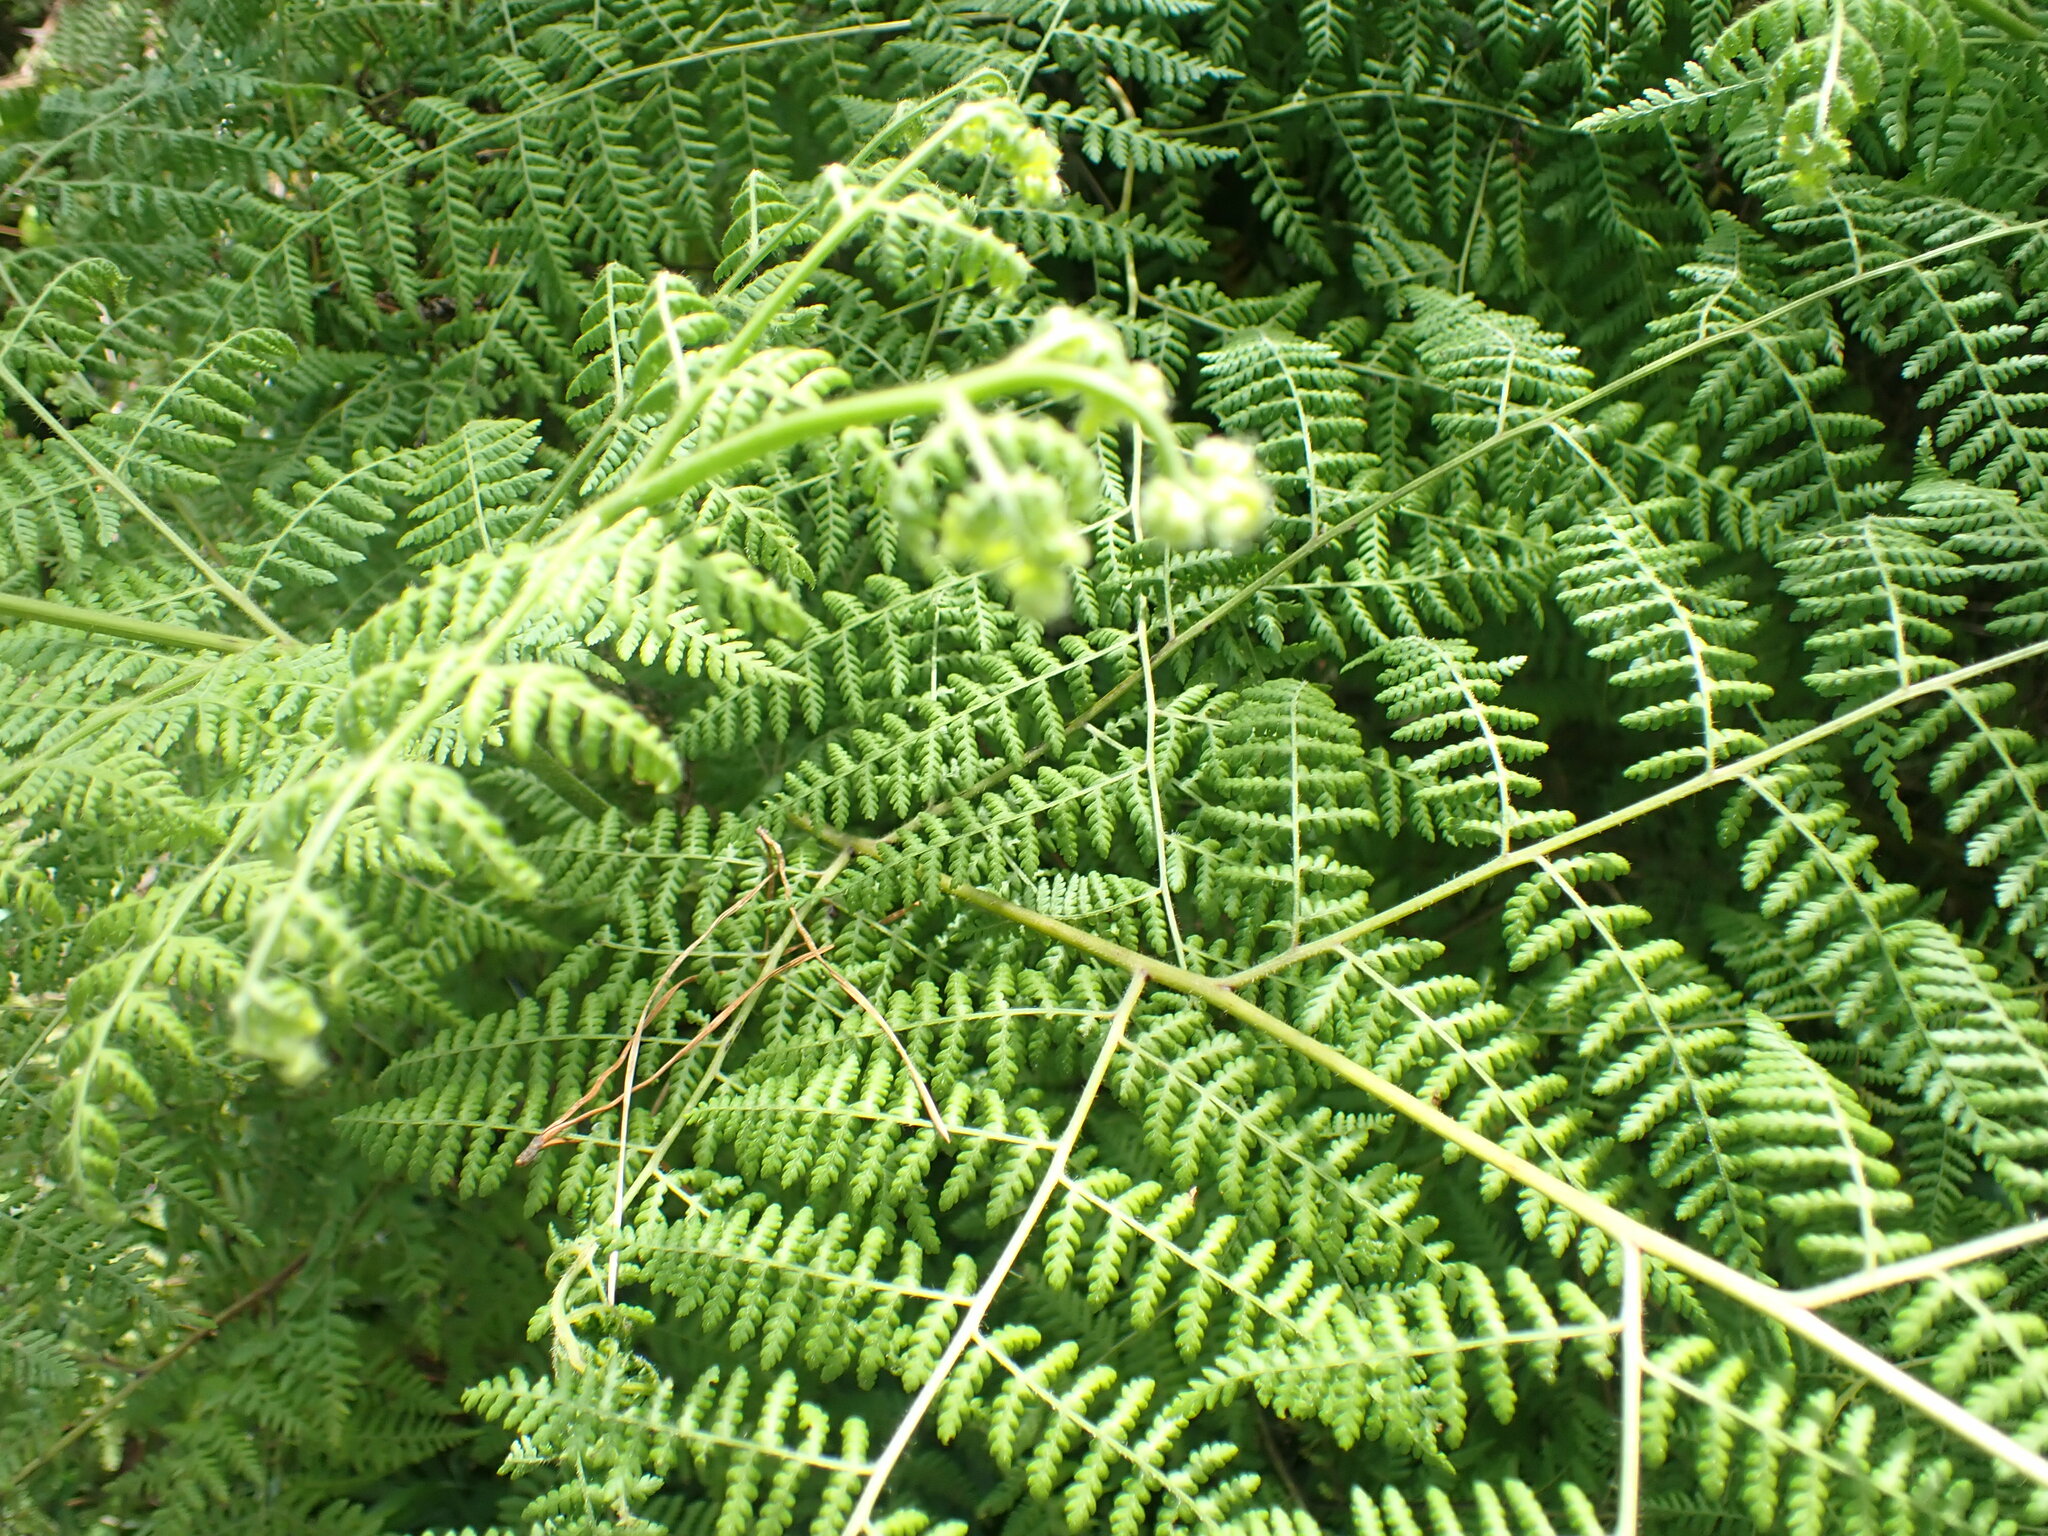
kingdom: Plantae
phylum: Tracheophyta
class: Polypodiopsida
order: Polypodiales
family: Dennstaedtiaceae
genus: Hypolepis
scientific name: Hypolepis sparsisora
